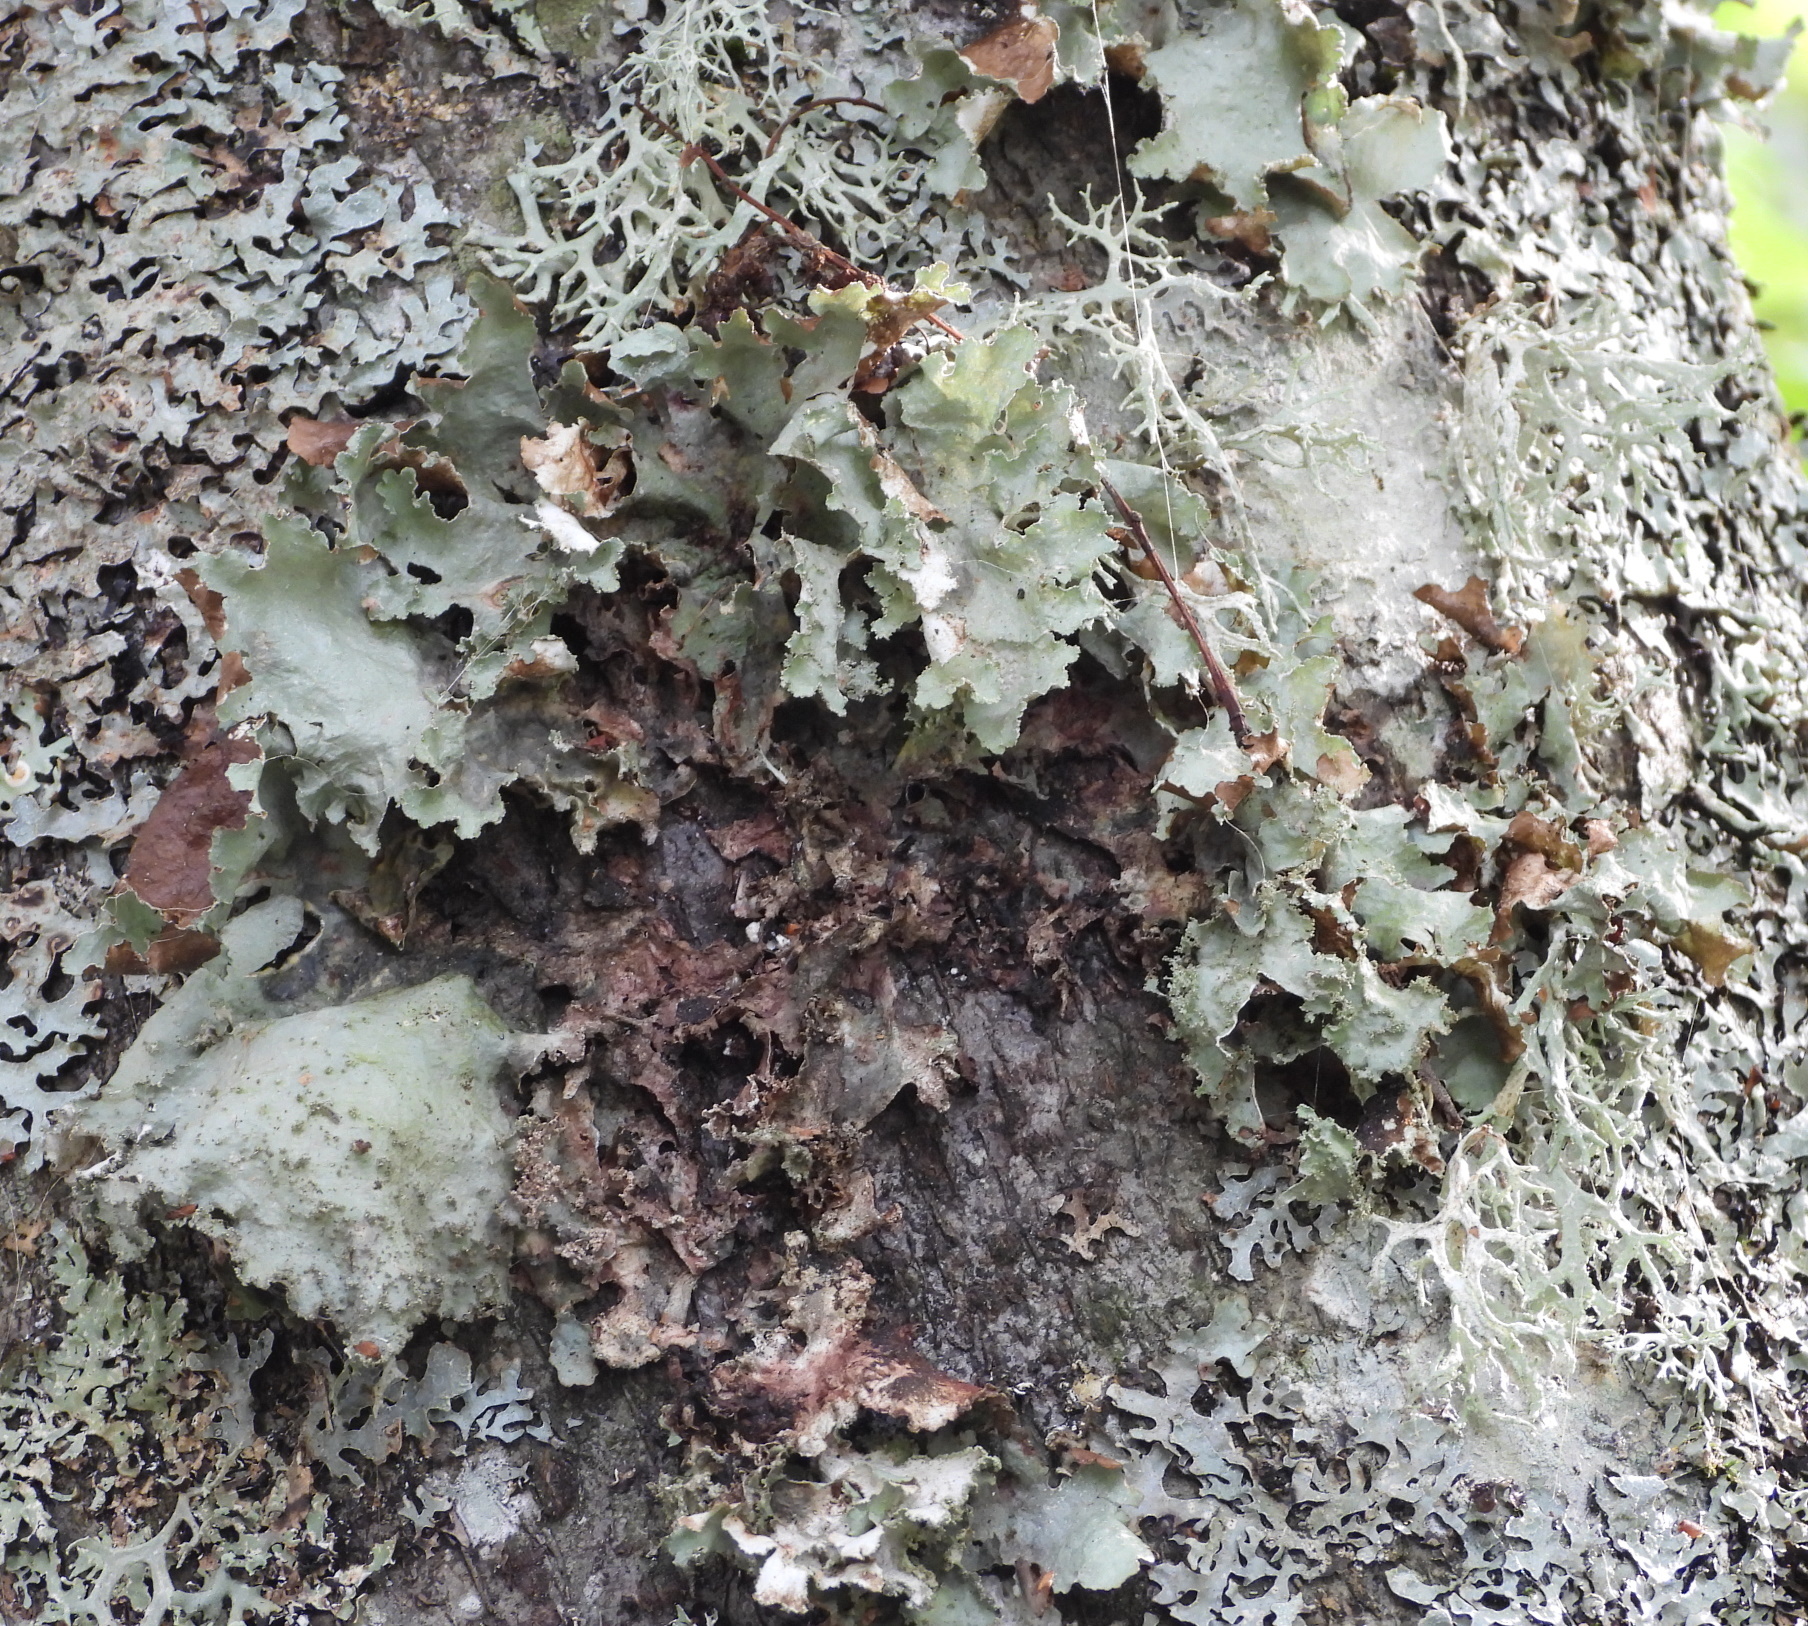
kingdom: Fungi
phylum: Ascomycota
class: Lecanoromycetes
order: Lecanorales
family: Parmeliaceae
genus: Platismatia
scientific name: Platismatia glauca
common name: Varied rag lichen
